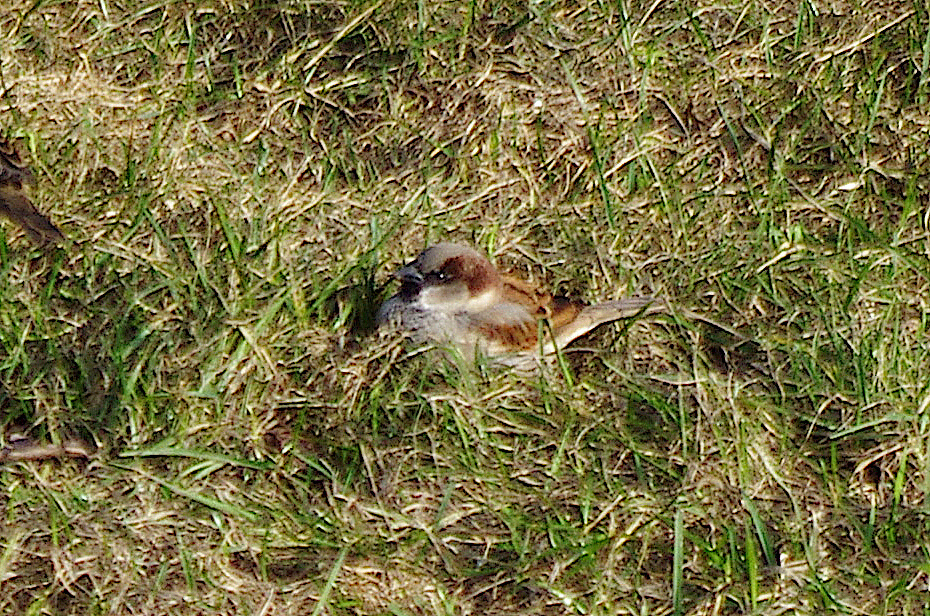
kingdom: Animalia
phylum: Chordata
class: Aves
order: Passeriformes
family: Passeridae
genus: Passer
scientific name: Passer domesticus
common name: House sparrow
